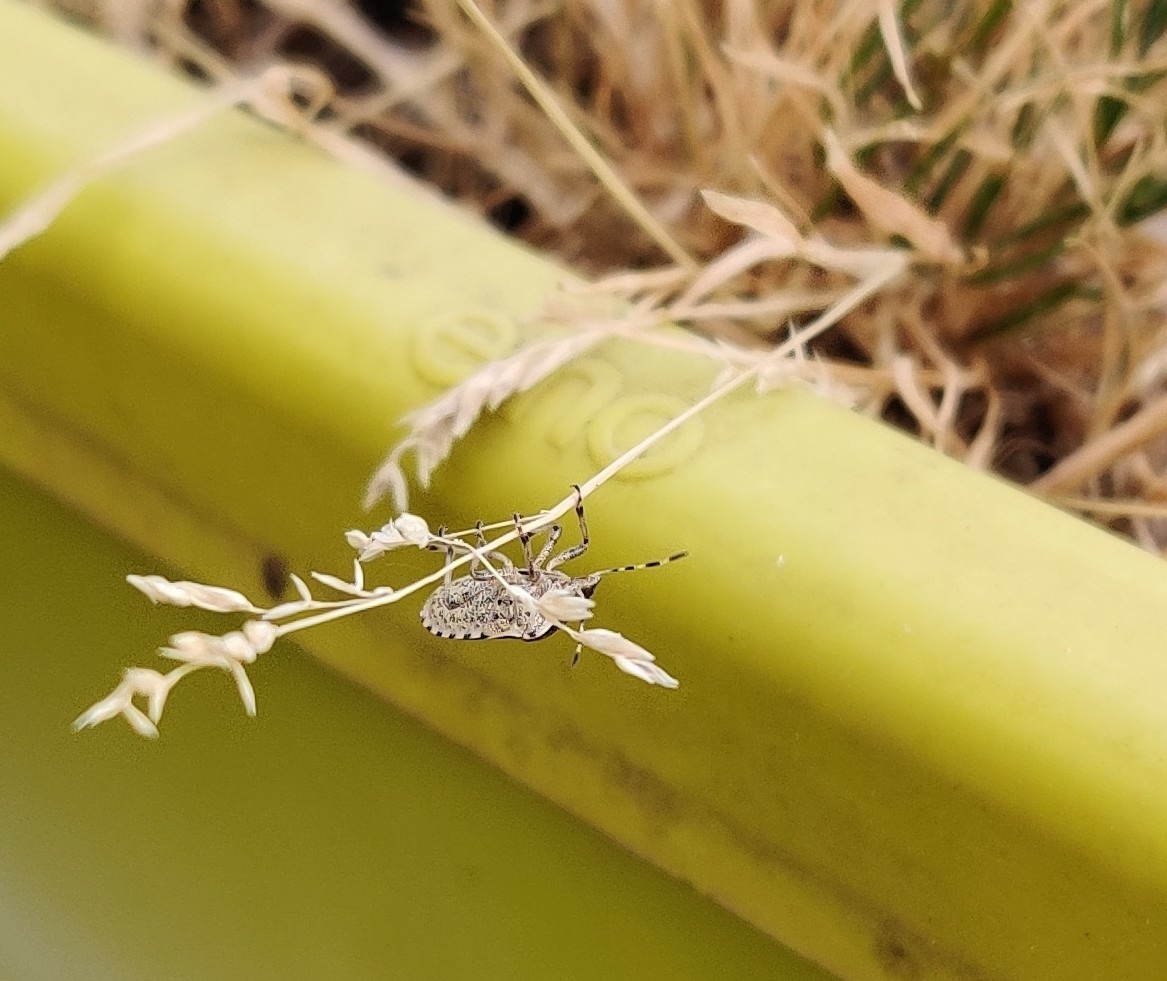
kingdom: Animalia
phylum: Arthropoda
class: Insecta
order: Hemiptera
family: Pentatomidae
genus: Holcostethus
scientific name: Holcostethus sphacelatus
